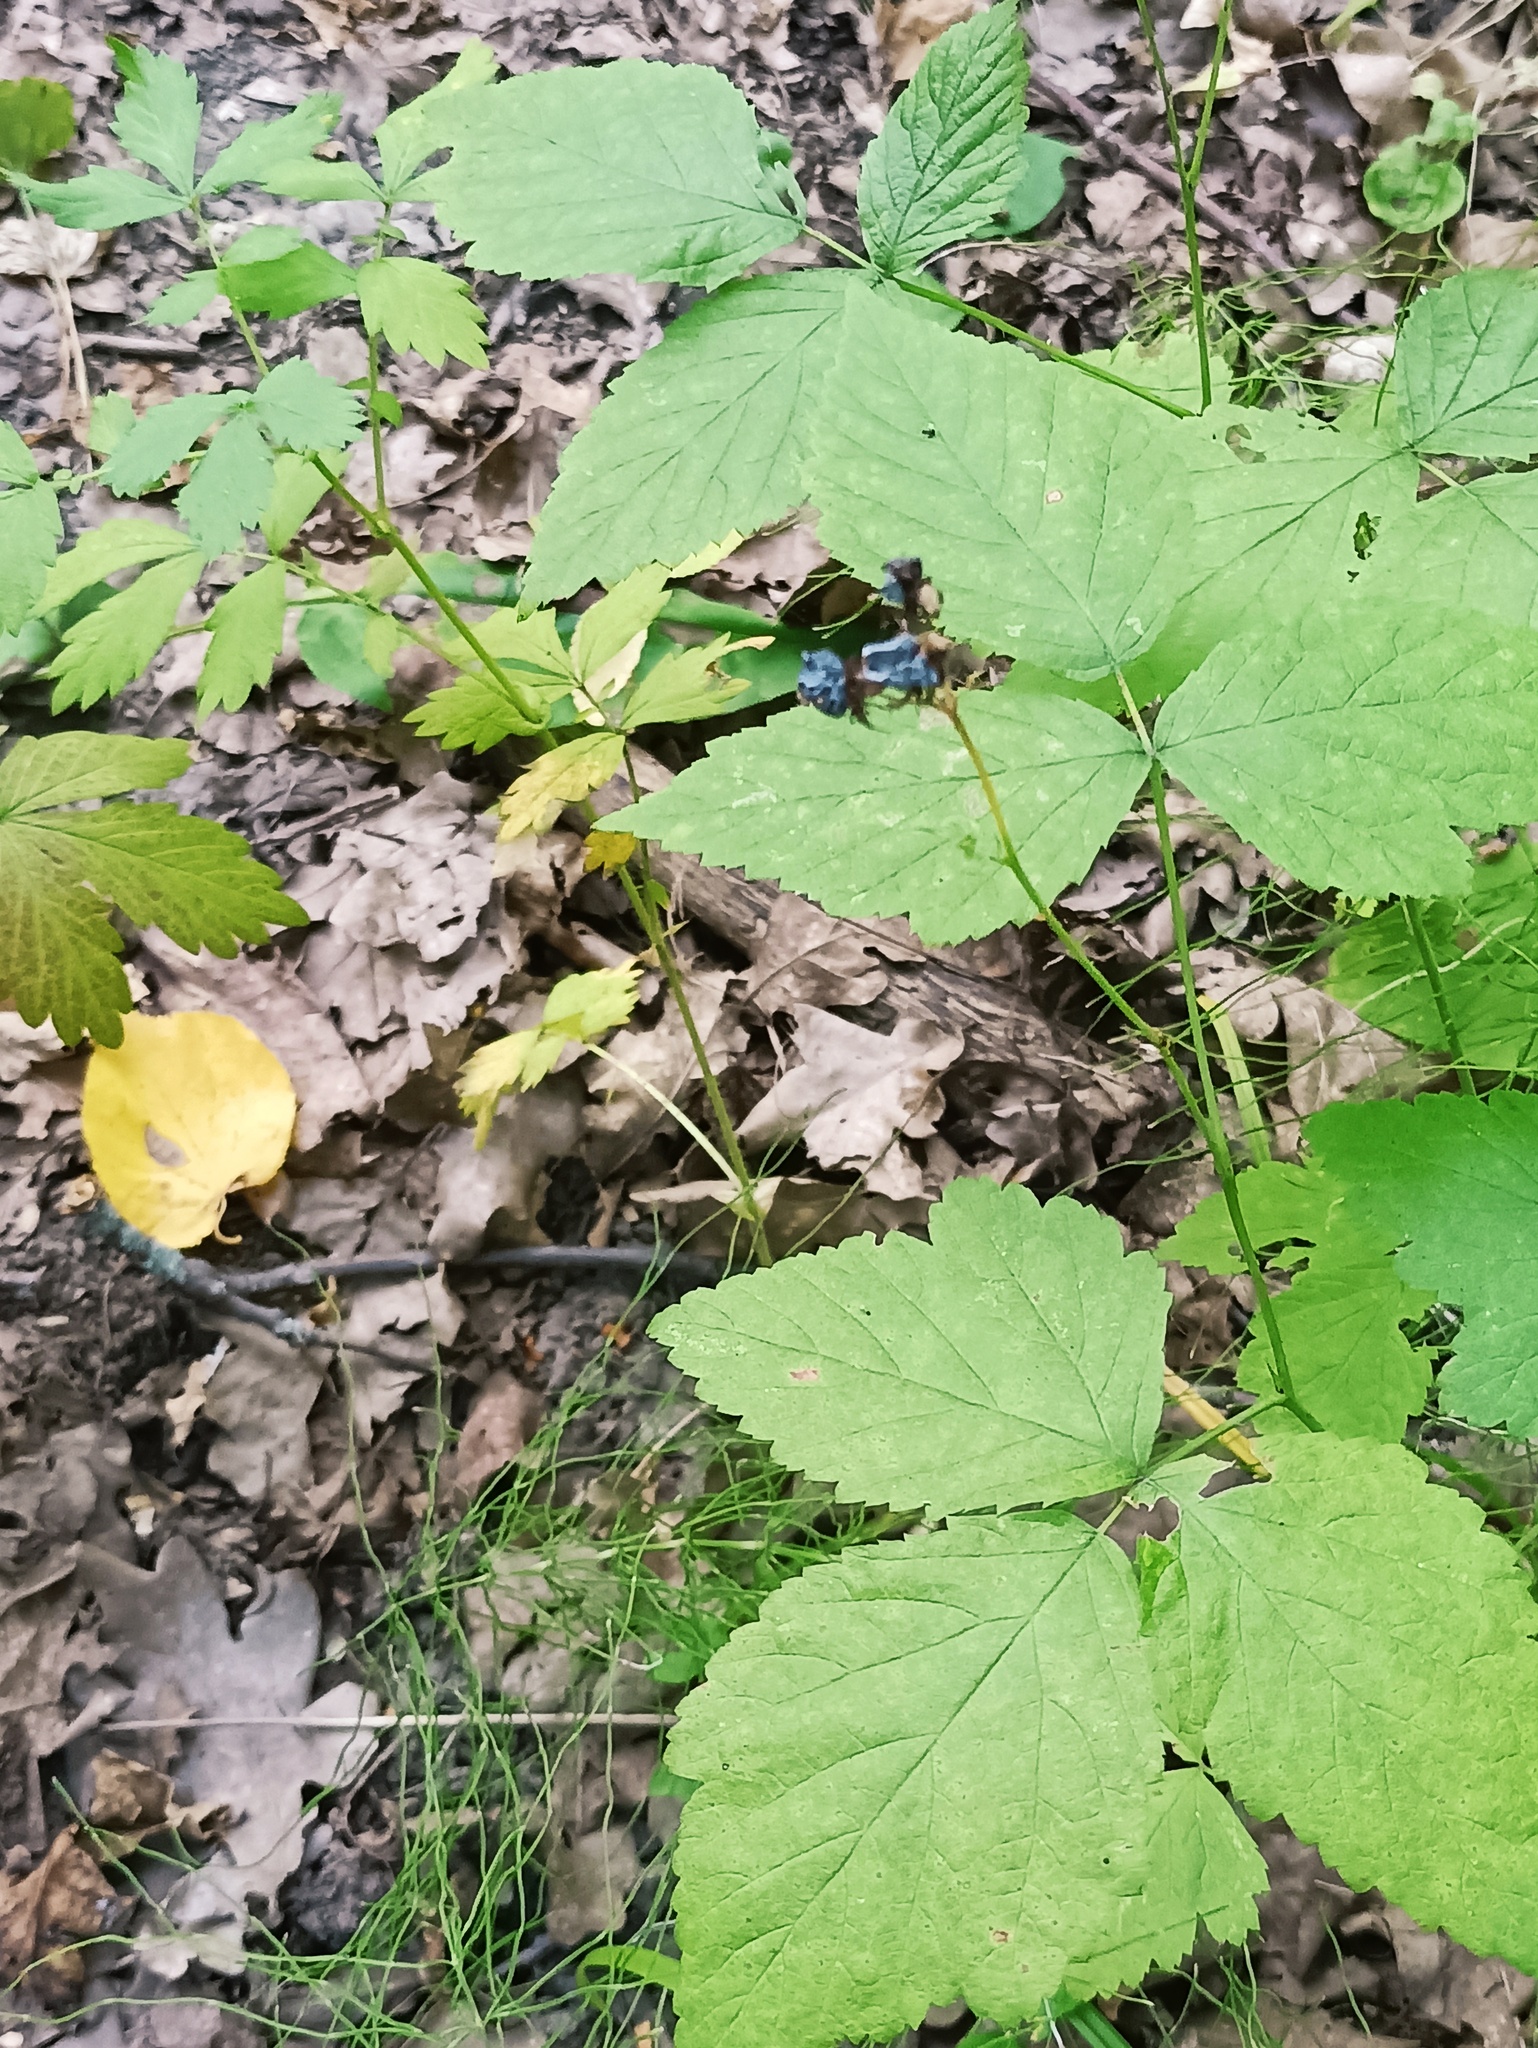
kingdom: Plantae
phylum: Tracheophyta
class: Magnoliopsida
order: Rosales
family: Rosaceae
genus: Rubus
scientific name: Rubus caesius
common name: Dewberry
